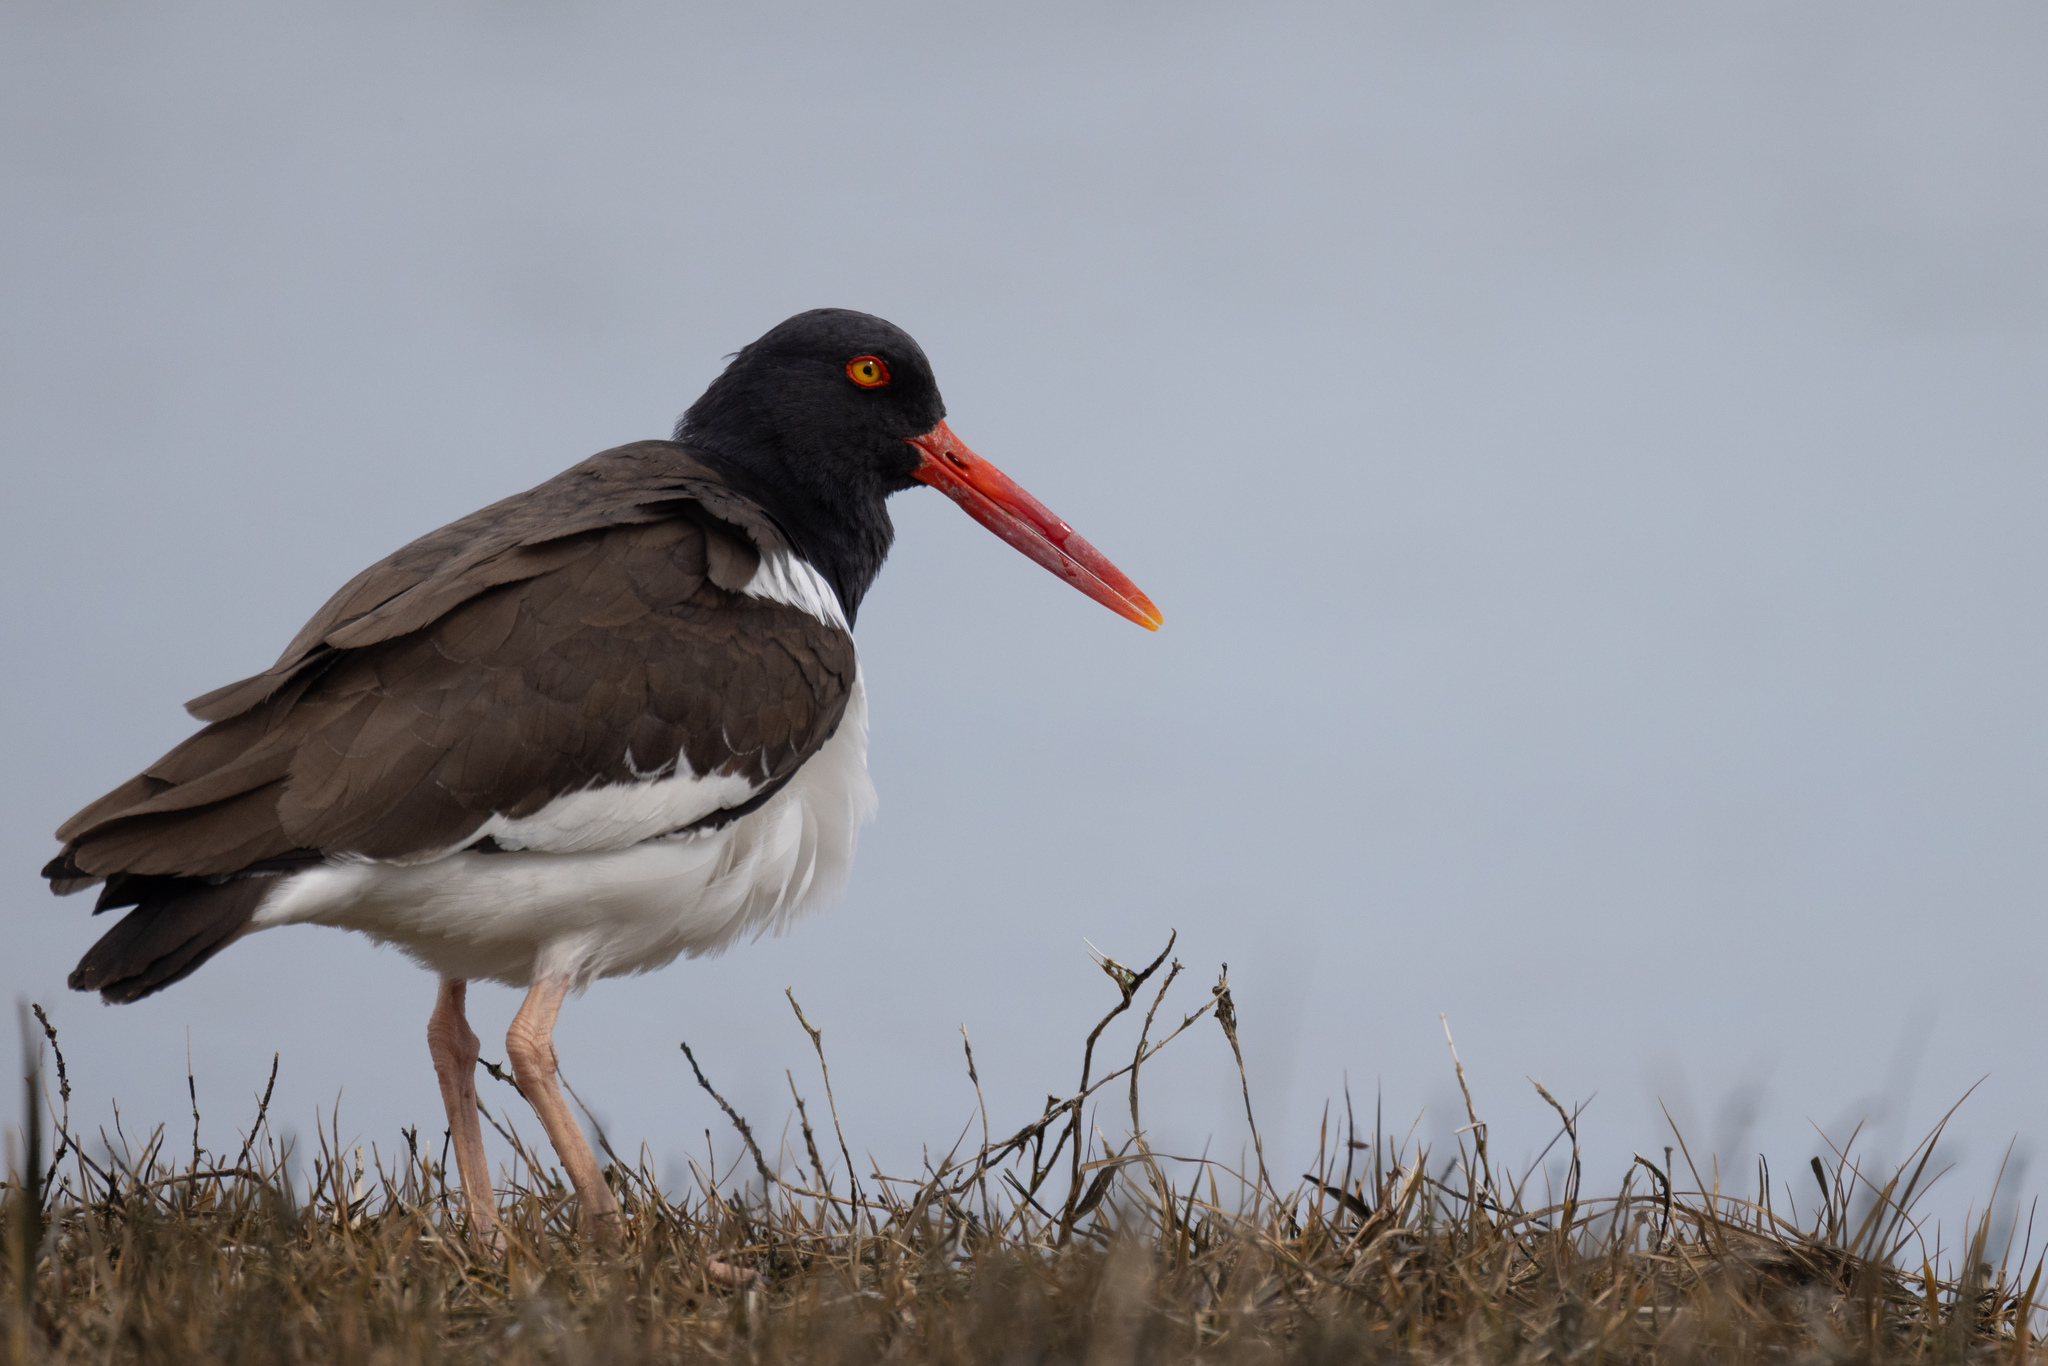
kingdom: Animalia
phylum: Chordata
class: Aves
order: Charadriiformes
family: Haematopodidae
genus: Haematopus
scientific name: Haematopus palliatus
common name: American oystercatcher
